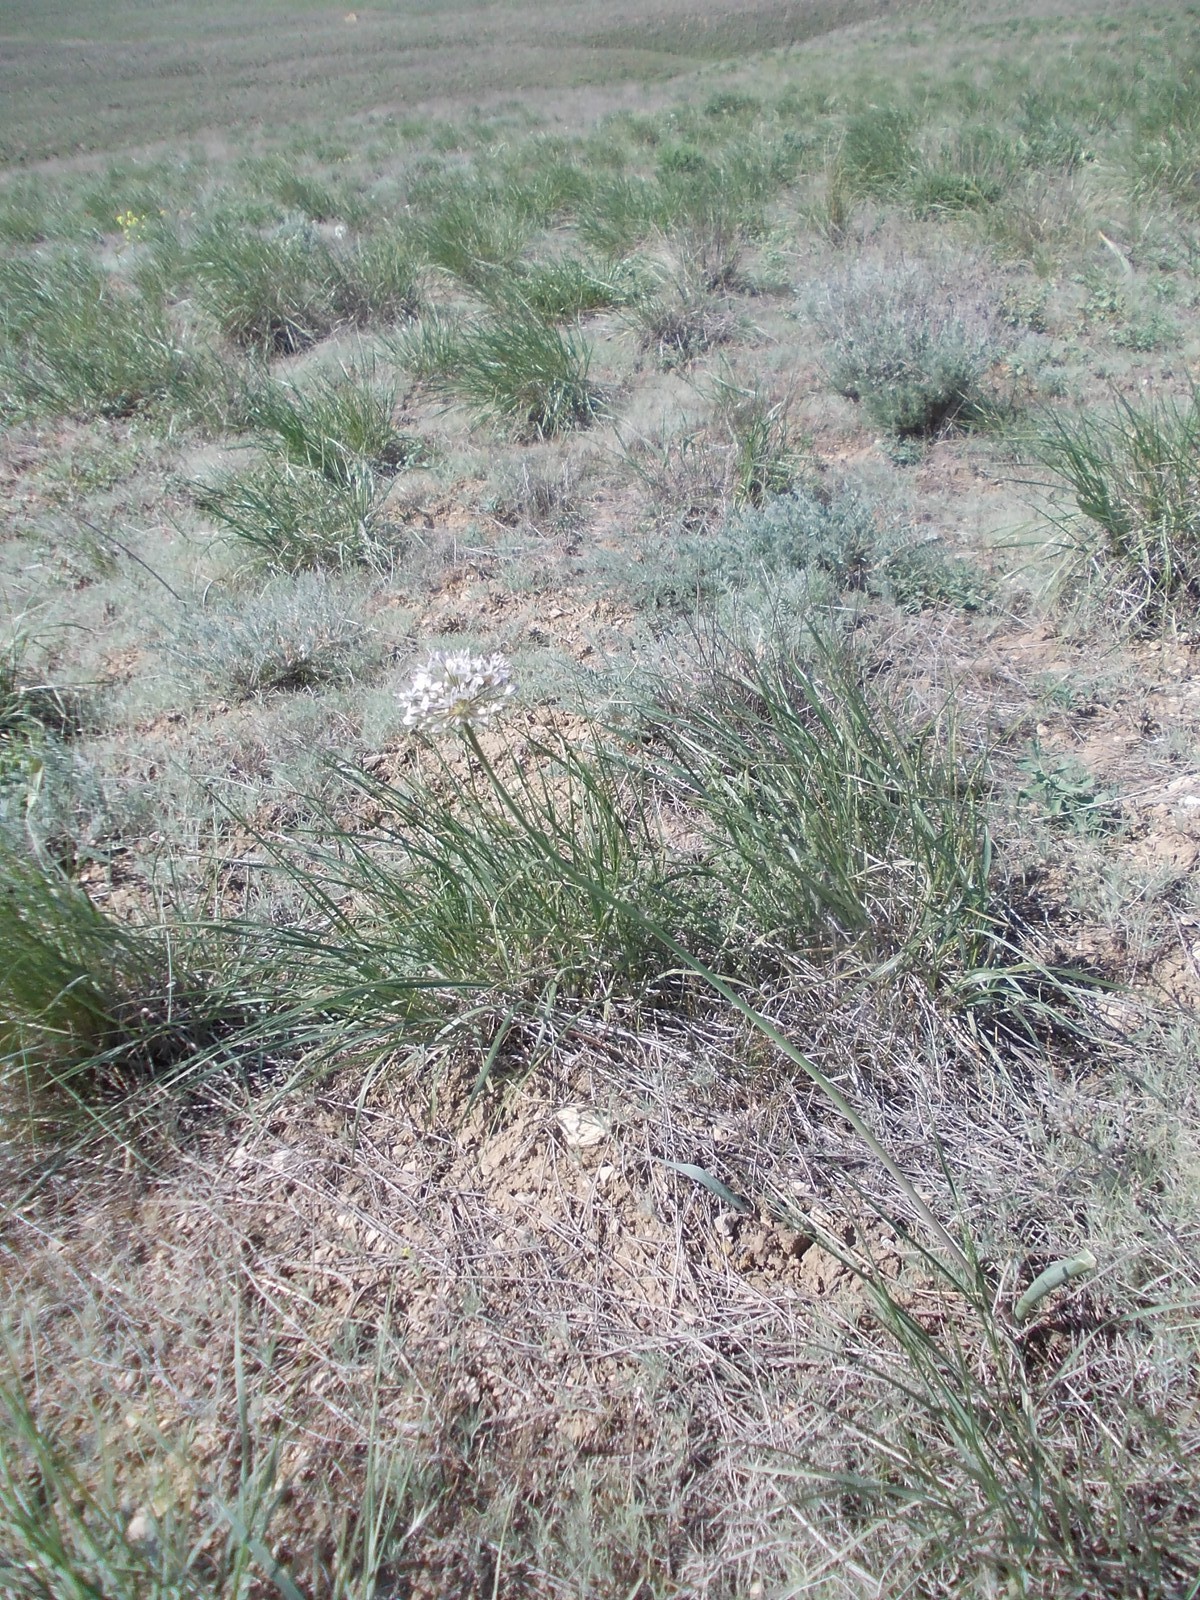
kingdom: Plantae
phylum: Tracheophyta
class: Liliopsida
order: Asparagales
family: Amaryllidaceae
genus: Allium
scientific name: Allium tulipifolium
